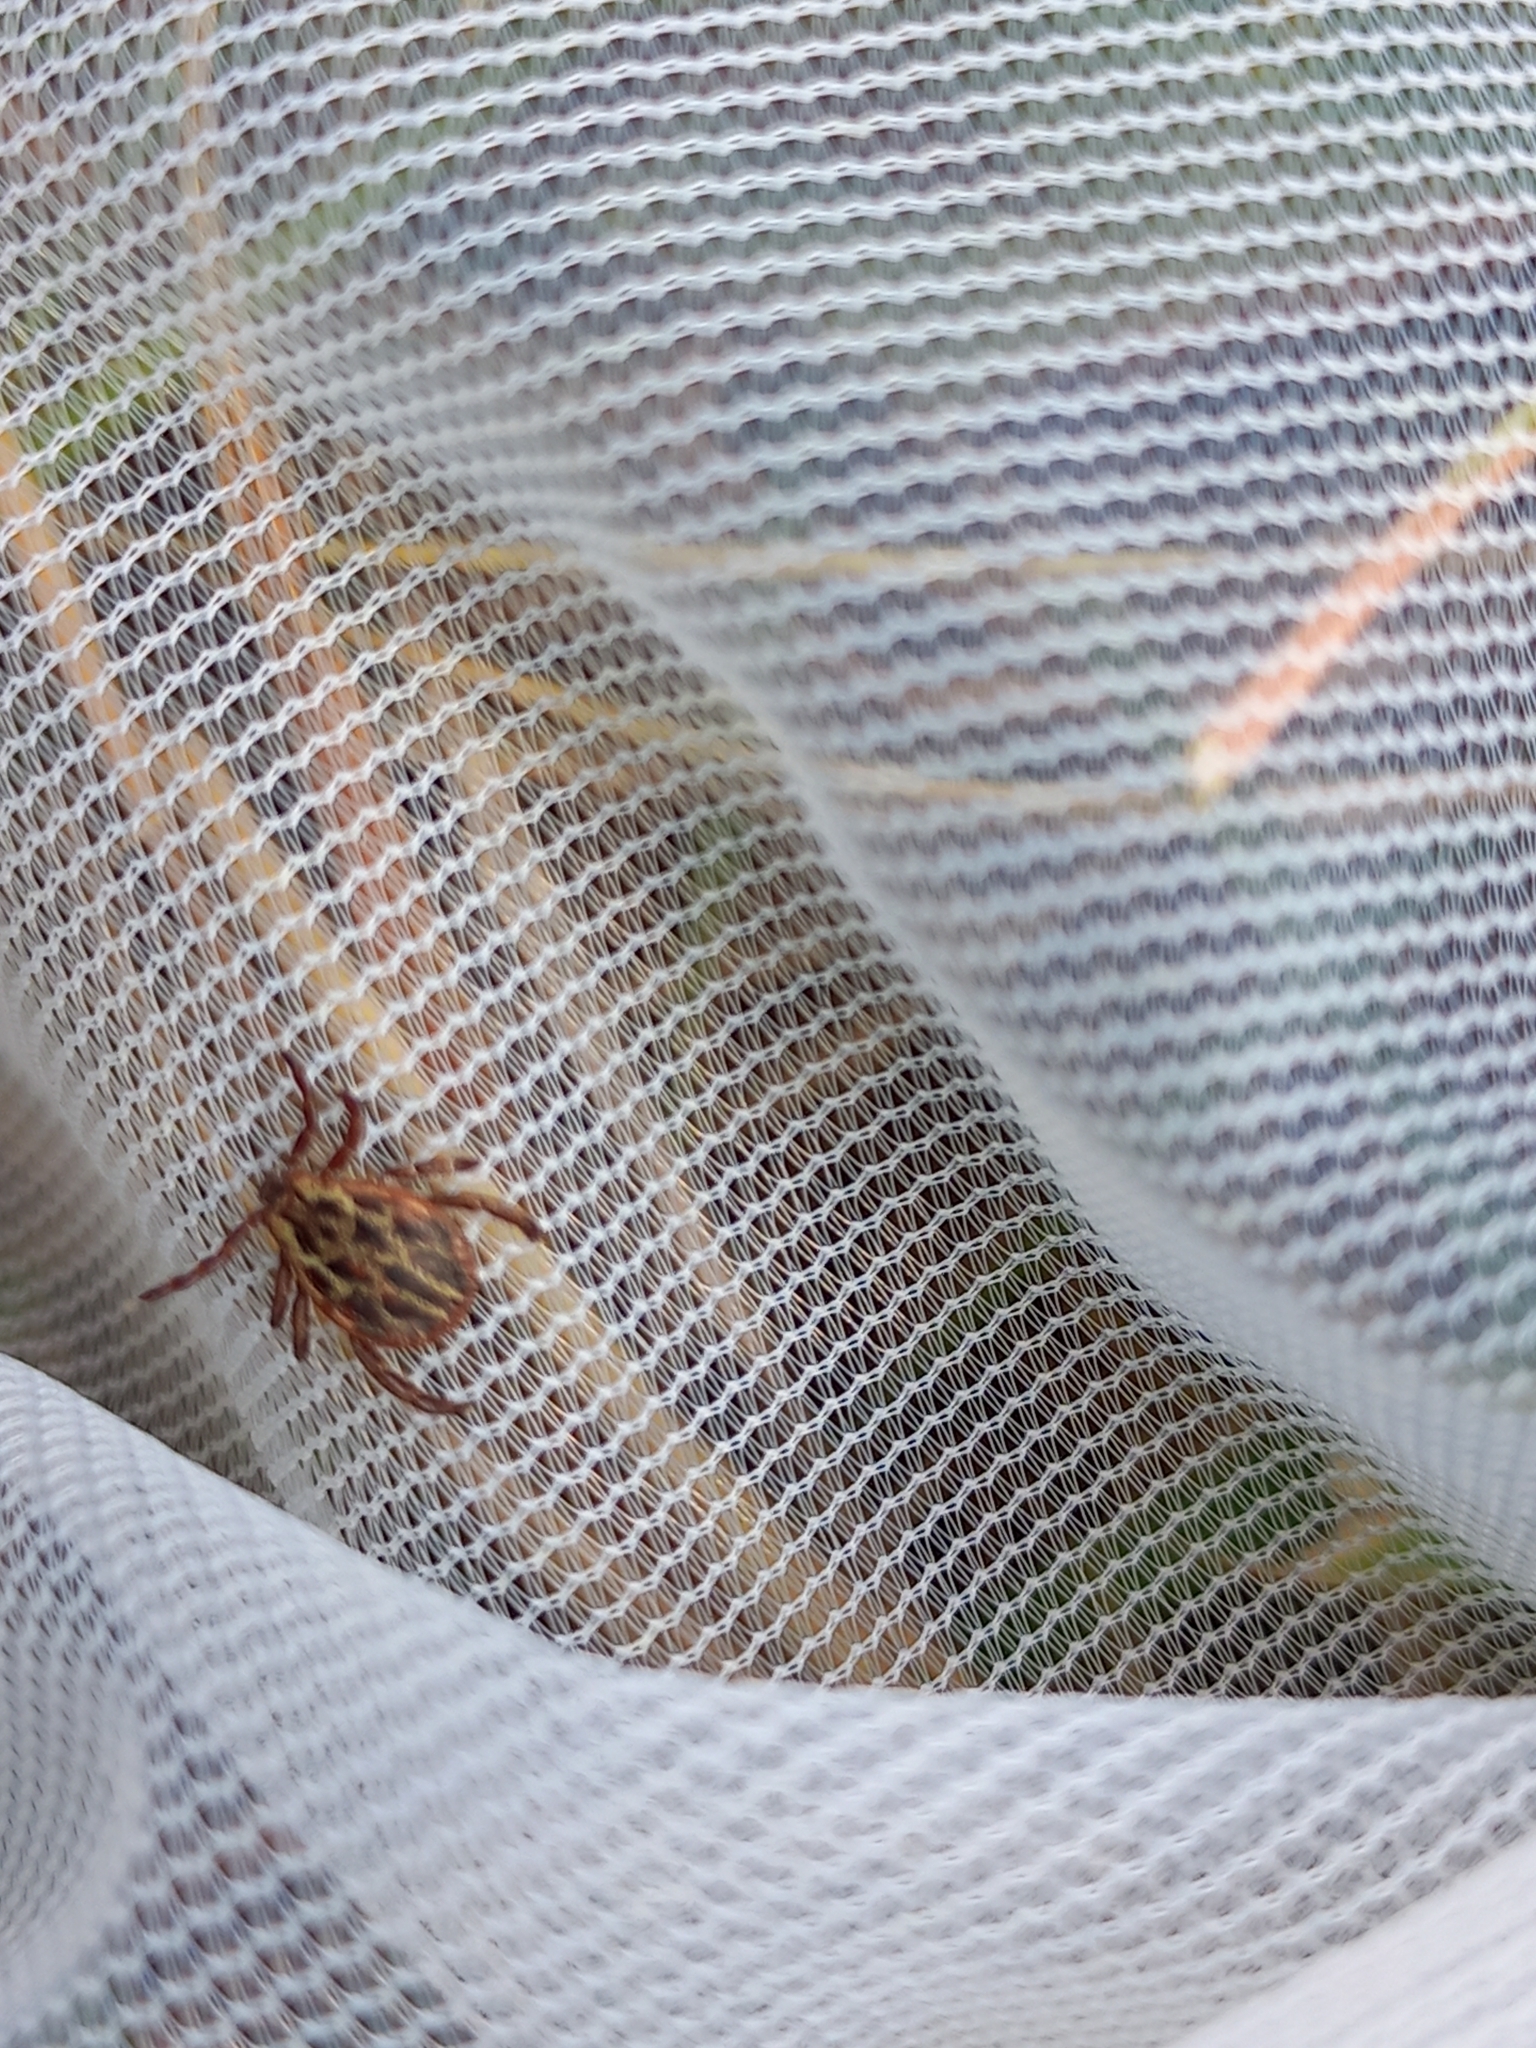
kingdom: Animalia
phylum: Arthropoda
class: Arachnida
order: Ixodida
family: Ixodidae
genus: Dermacentor
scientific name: Dermacentor reticulatus
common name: Ornate cow tick
